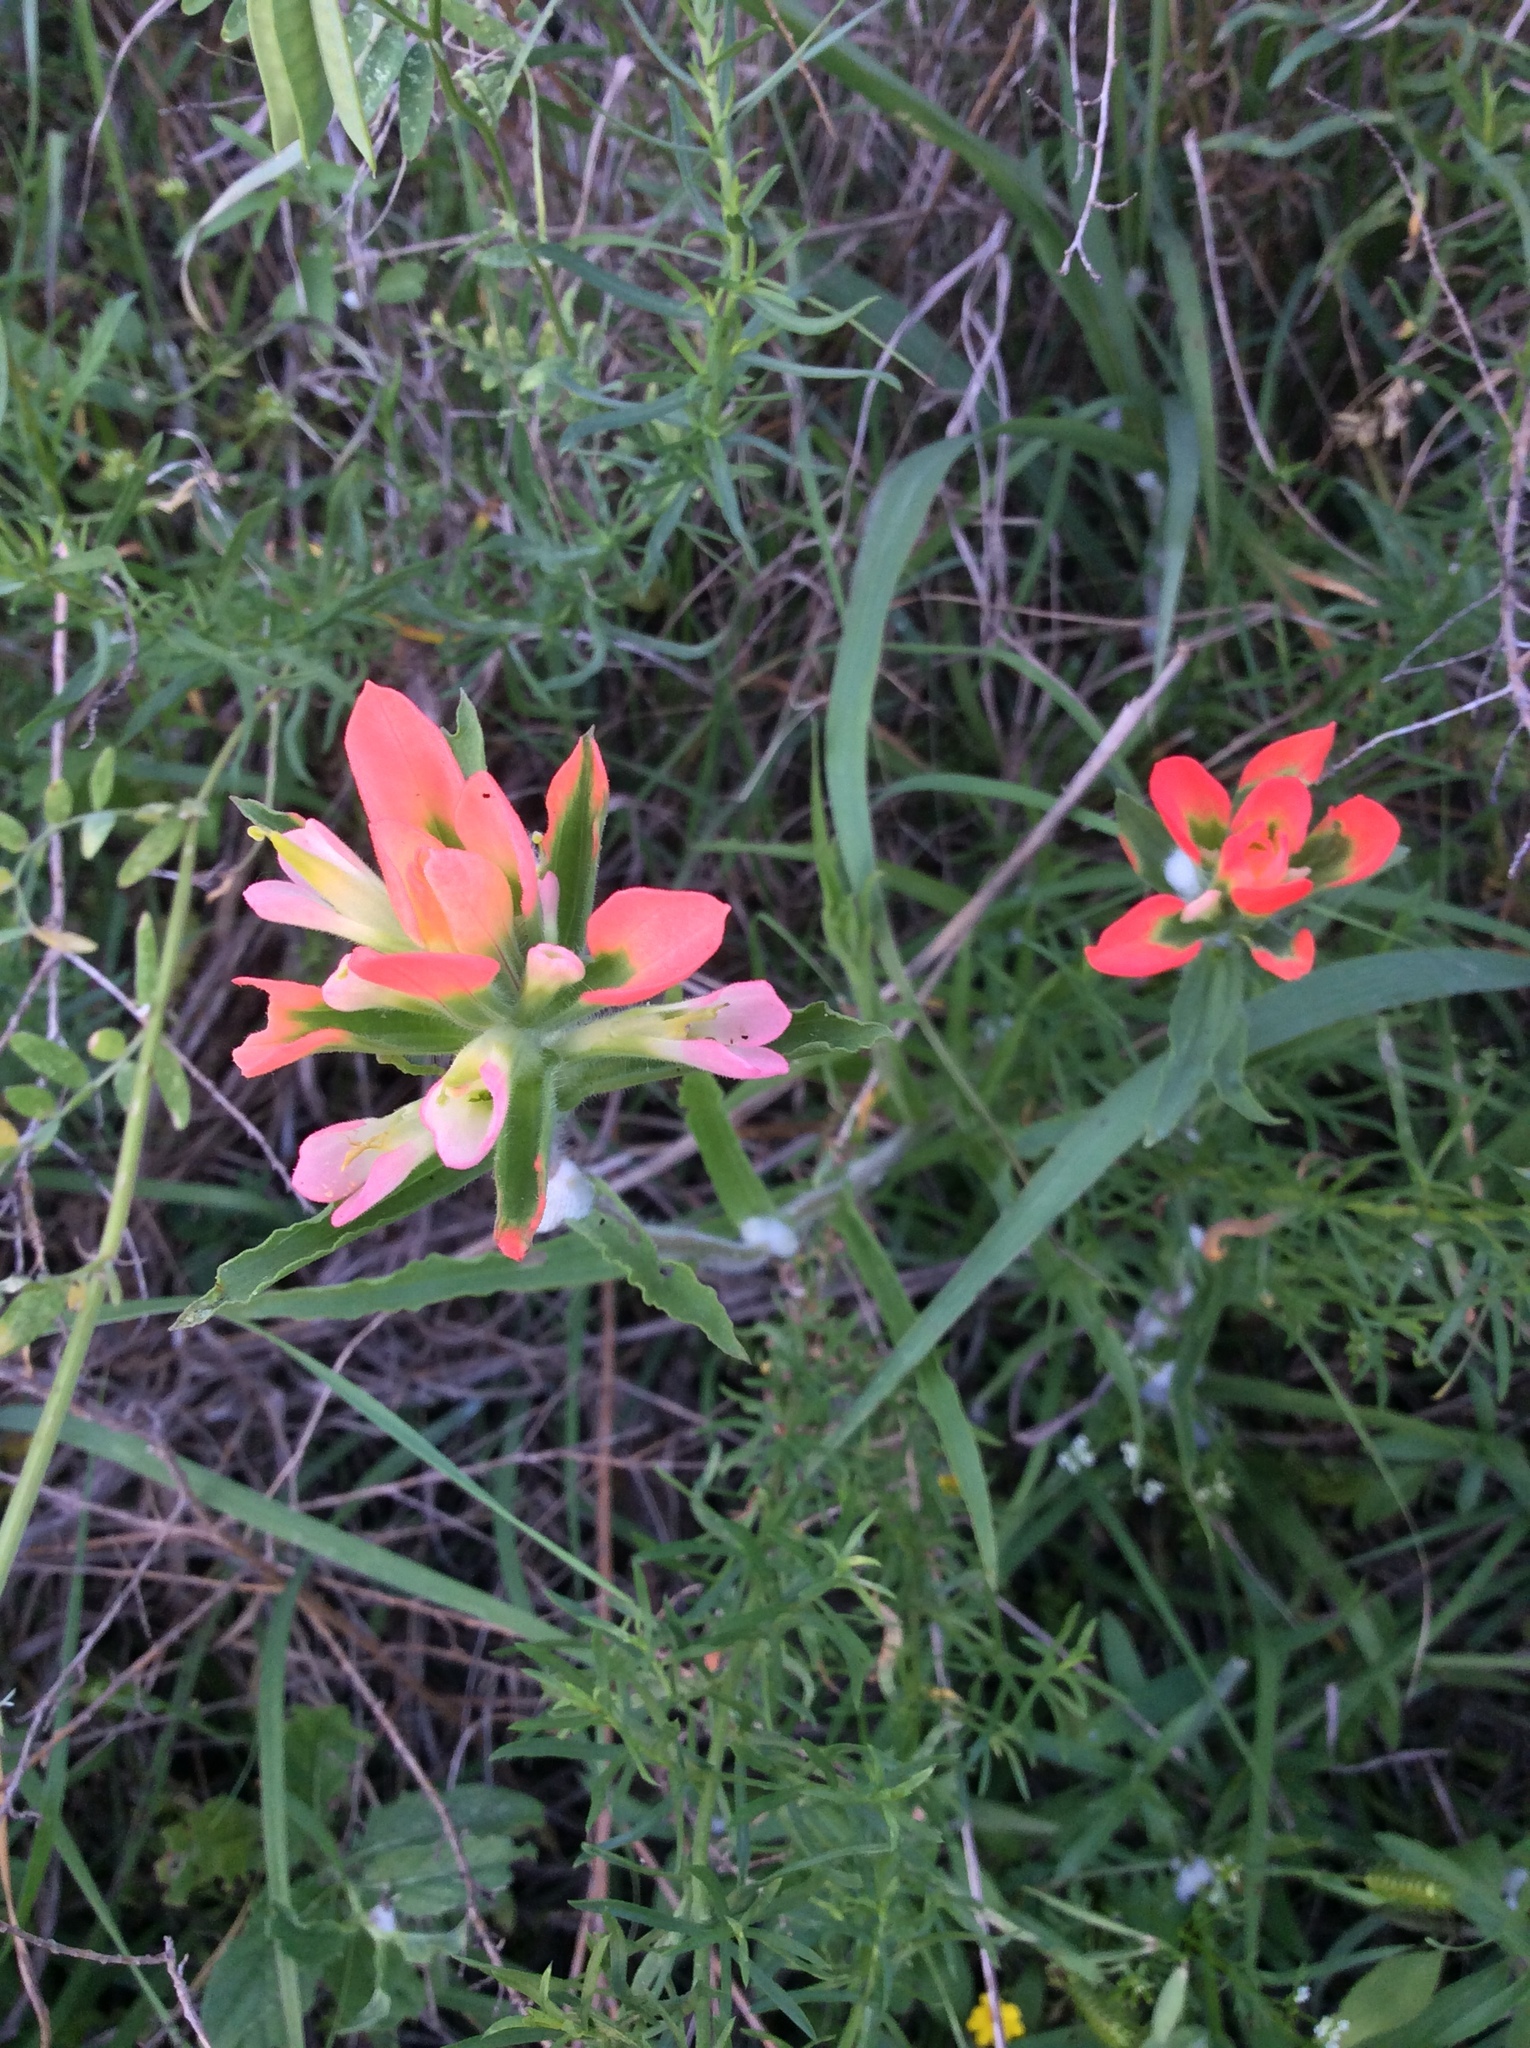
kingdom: Plantae
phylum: Tracheophyta
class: Magnoliopsida
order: Lamiales
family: Orobanchaceae
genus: Castilleja
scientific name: Castilleja indivisa
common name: Texas paintbrush
